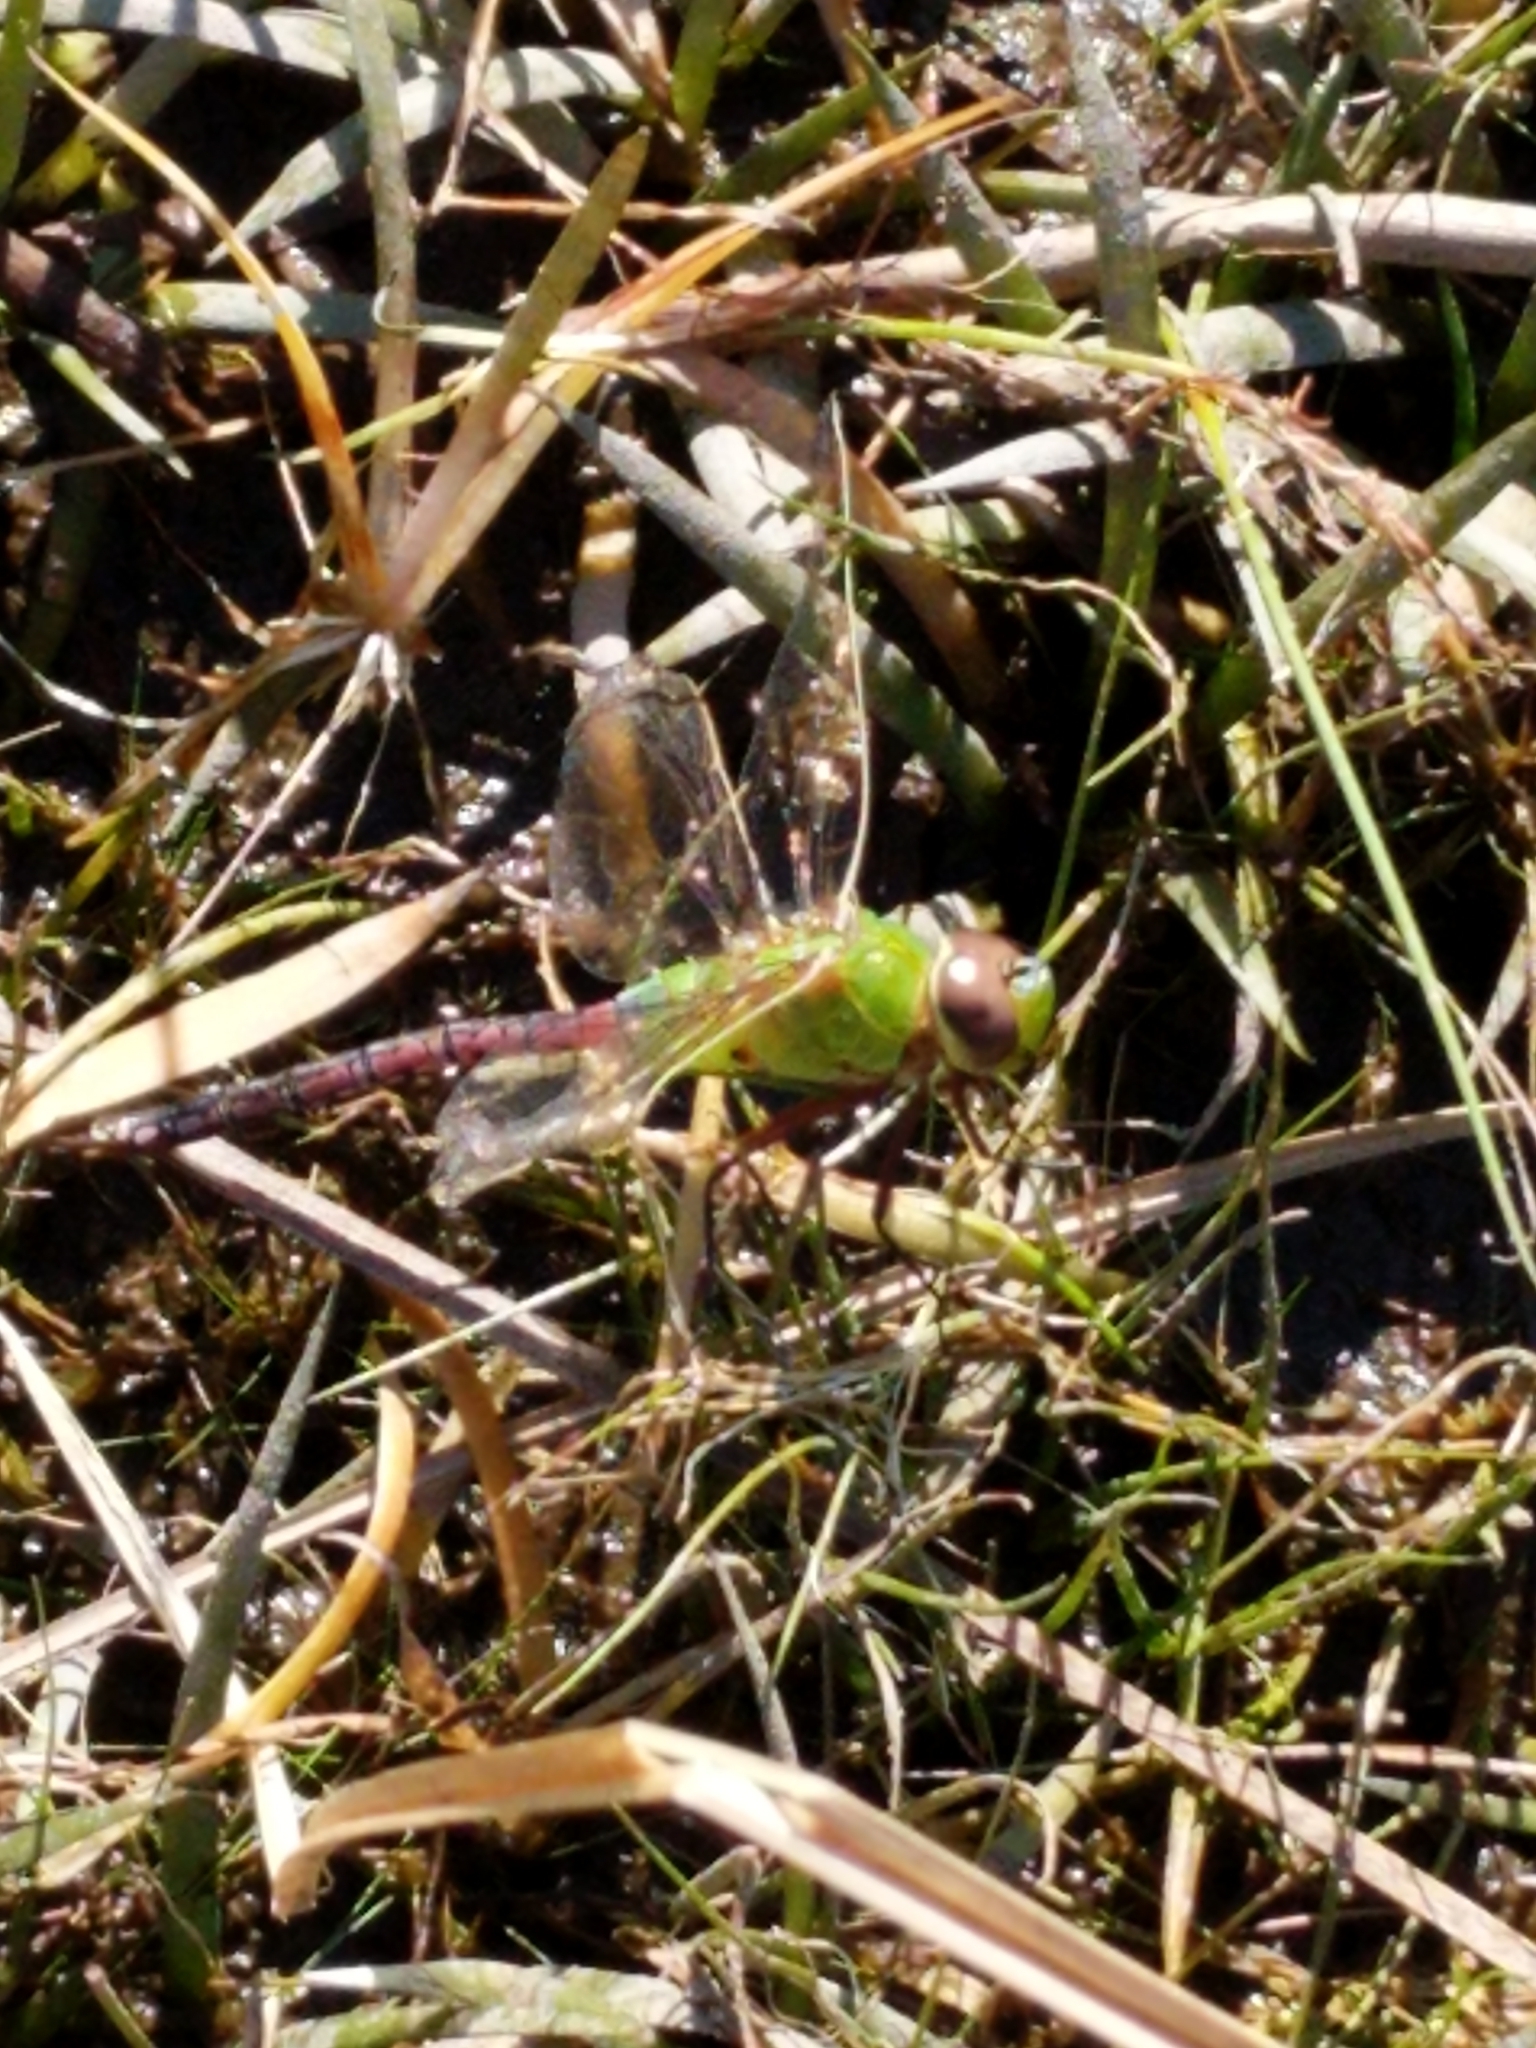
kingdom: Animalia
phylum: Arthropoda
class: Insecta
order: Odonata
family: Aeshnidae
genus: Anax
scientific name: Anax junius
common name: Common green darner
